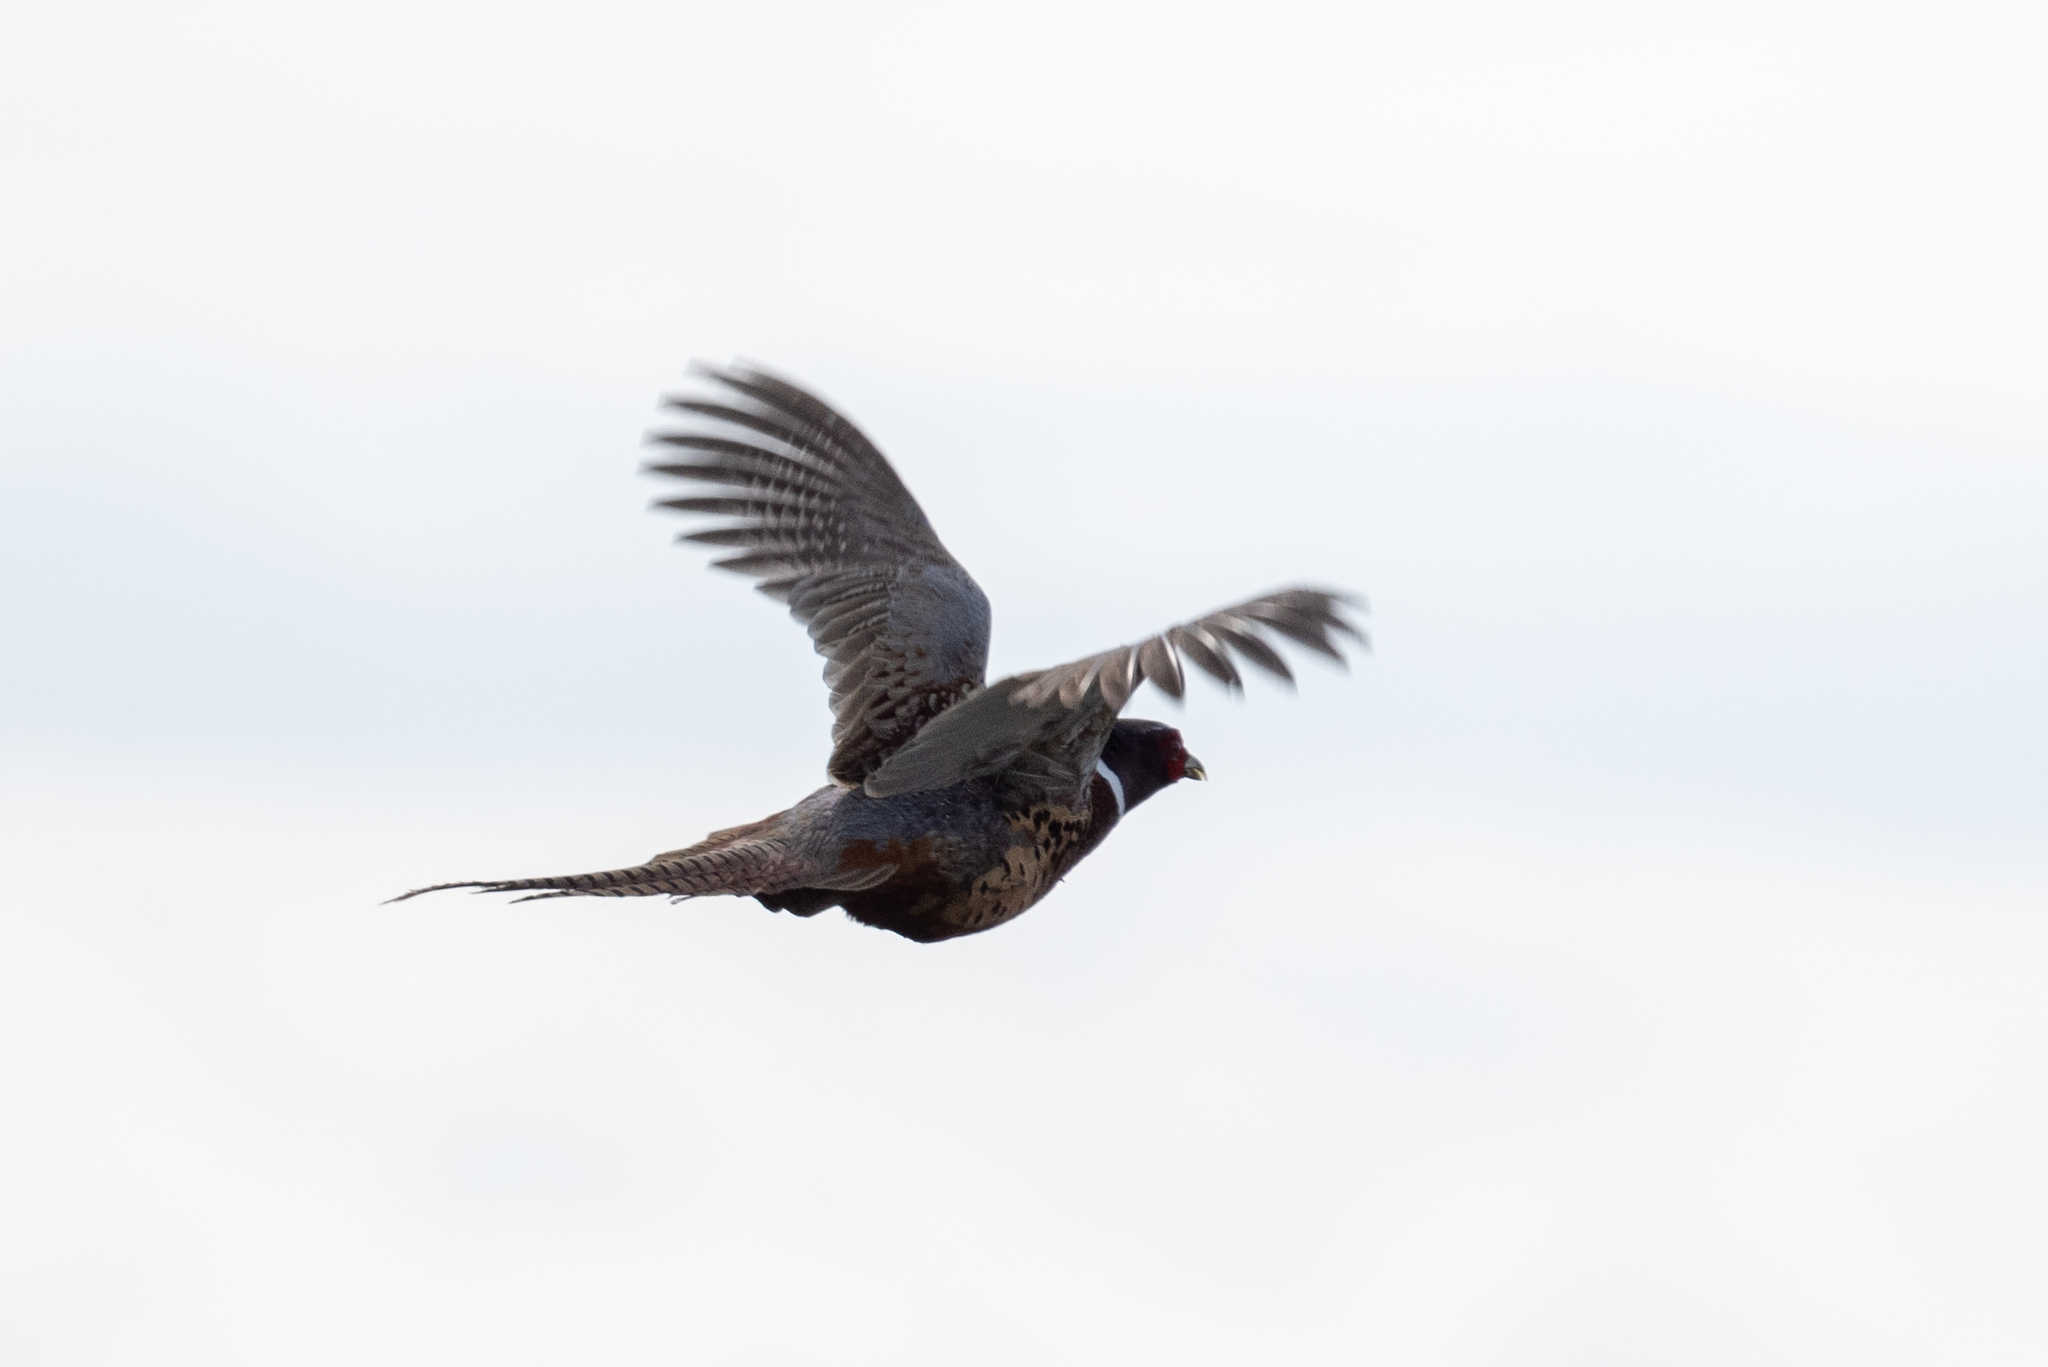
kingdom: Animalia
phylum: Chordata
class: Aves
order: Galliformes
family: Phasianidae
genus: Phasianus
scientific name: Phasianus colchicus
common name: Common pheasant
